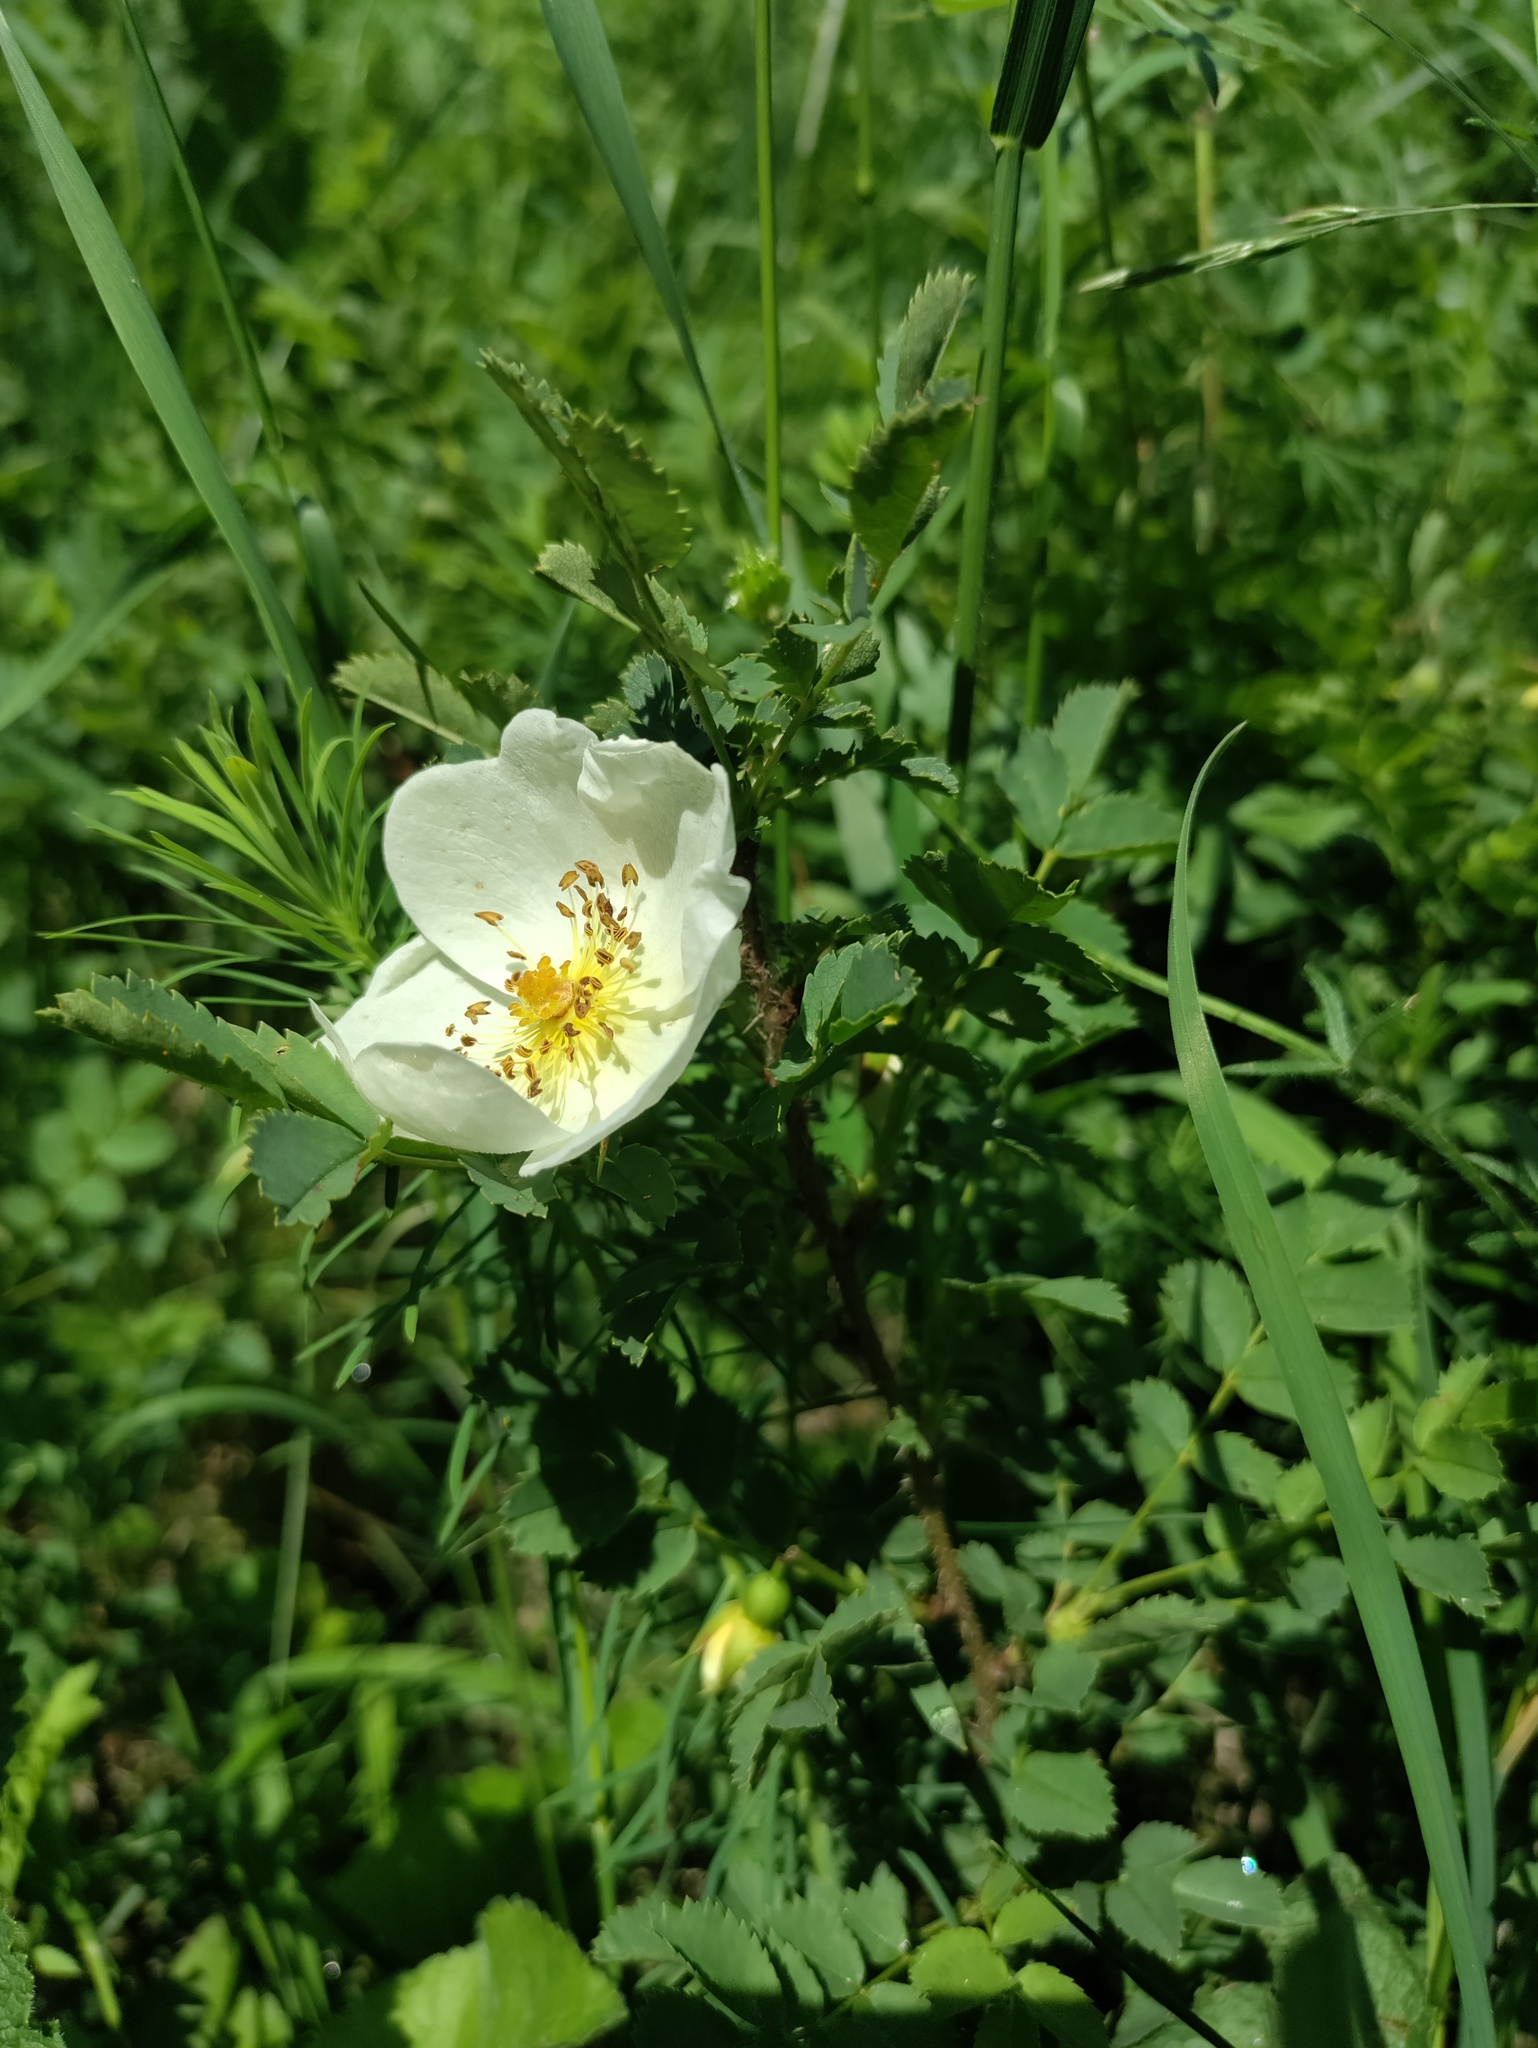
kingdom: Plantae
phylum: Tracheophyta
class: Magnoliopsida
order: Rosales
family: Rosaceae
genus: Rosa
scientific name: Rosa spinosissima
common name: Burnet rose
